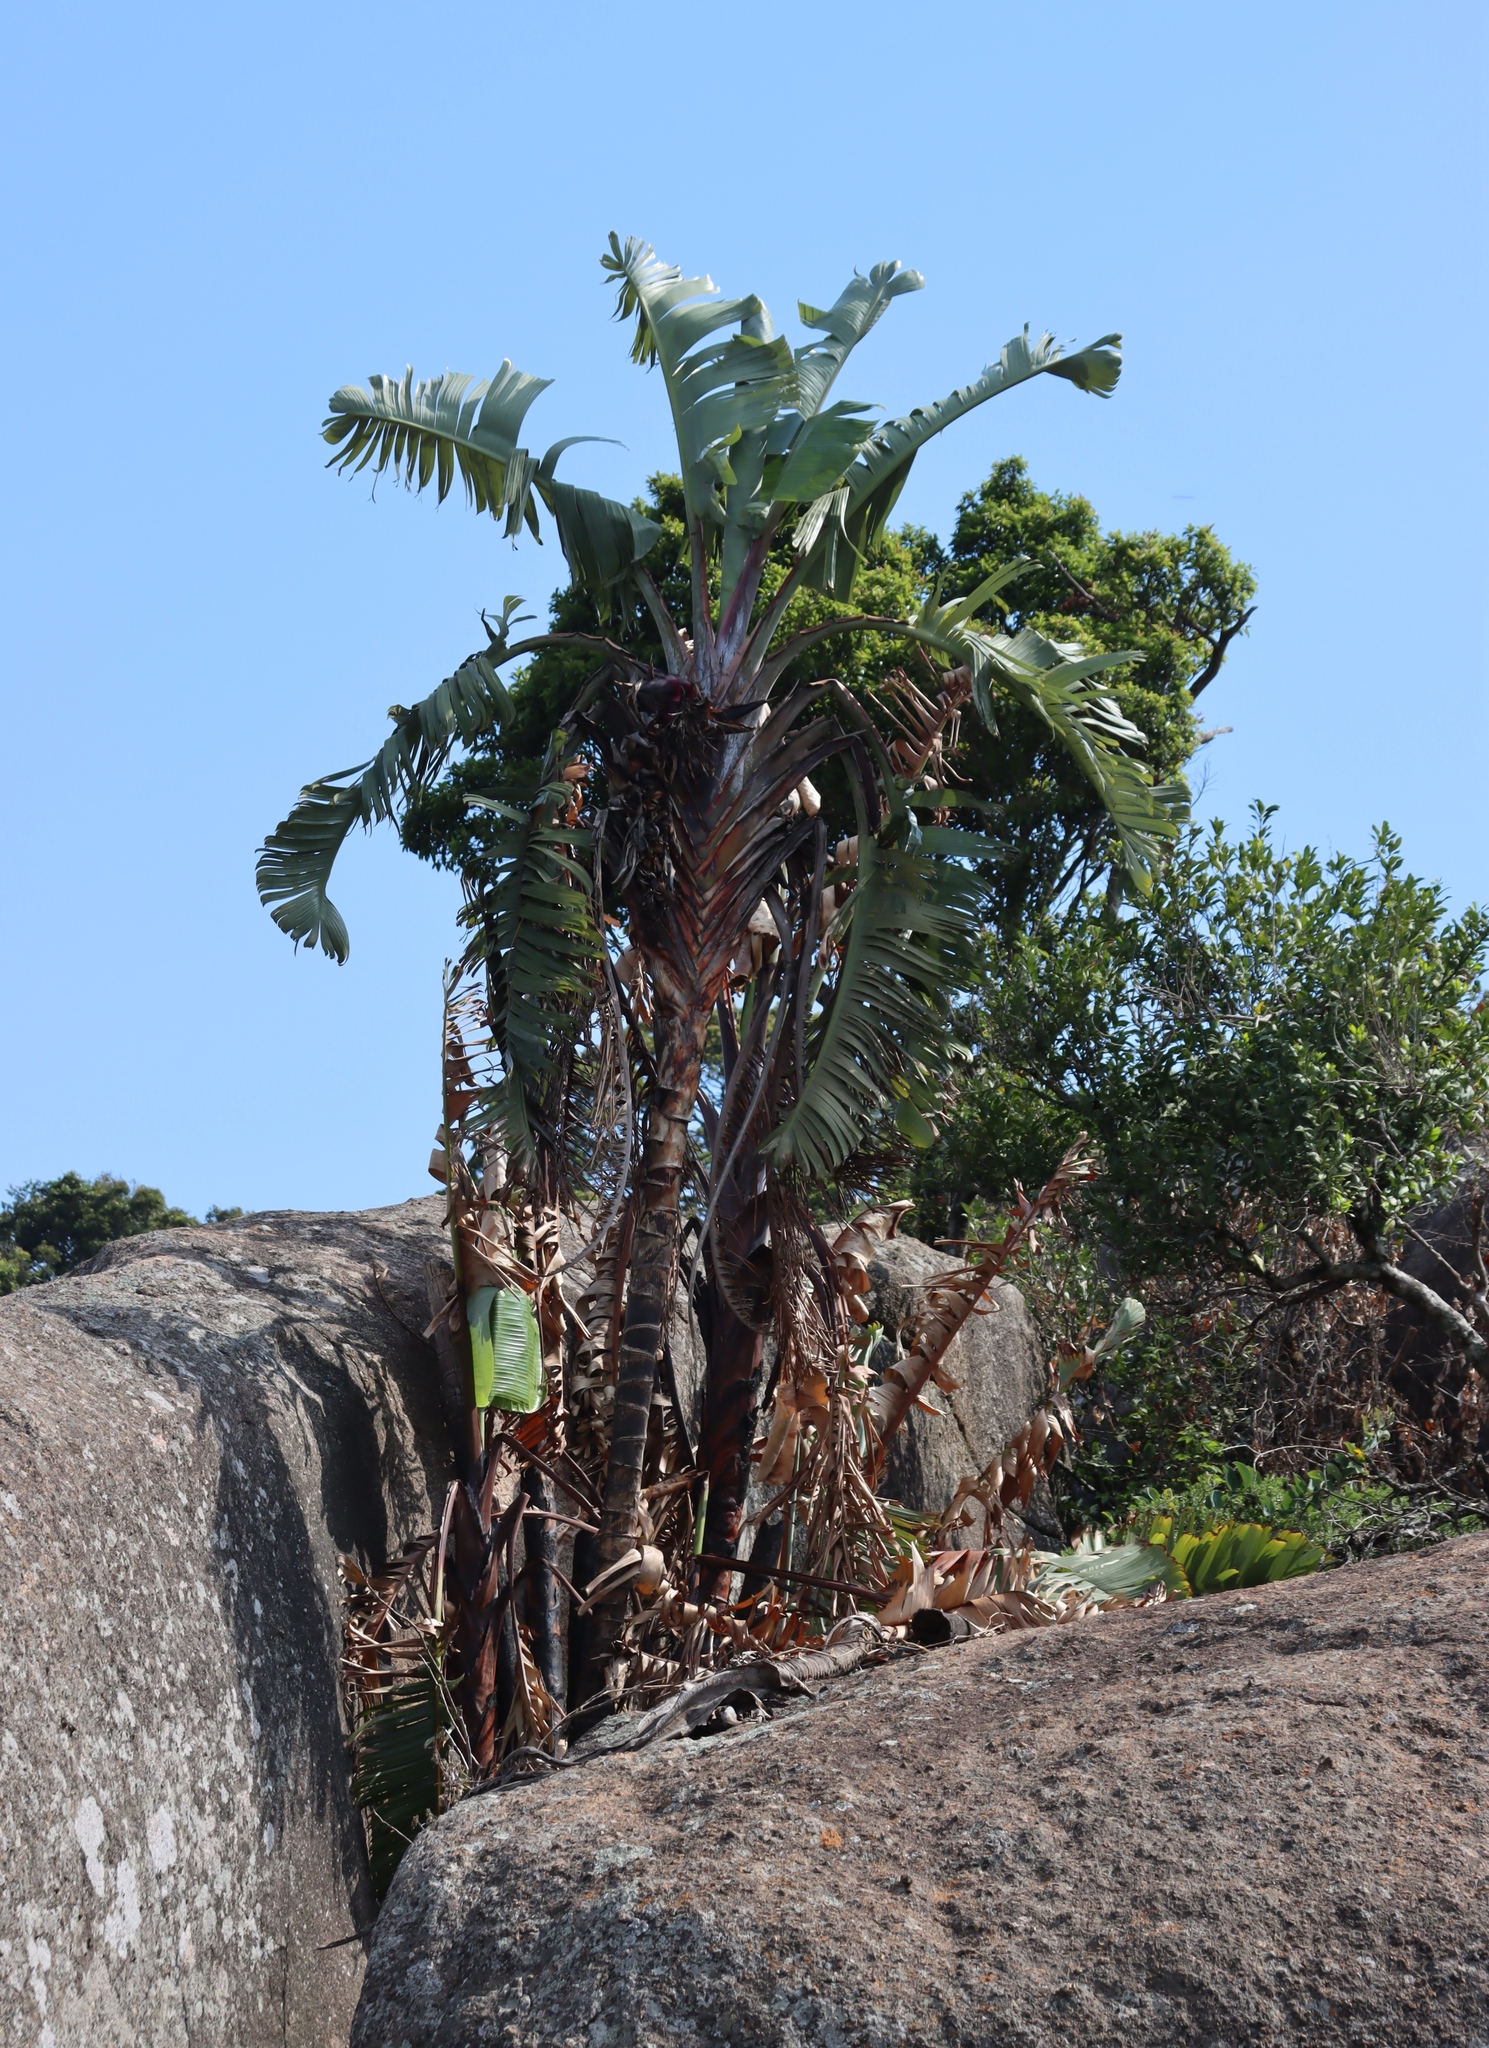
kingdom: Plantae
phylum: Tracheophyta
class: Liliopsida
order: Zingiberales
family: Strelitziaceae
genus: Strelitzia
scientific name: Strelitzia caudata
